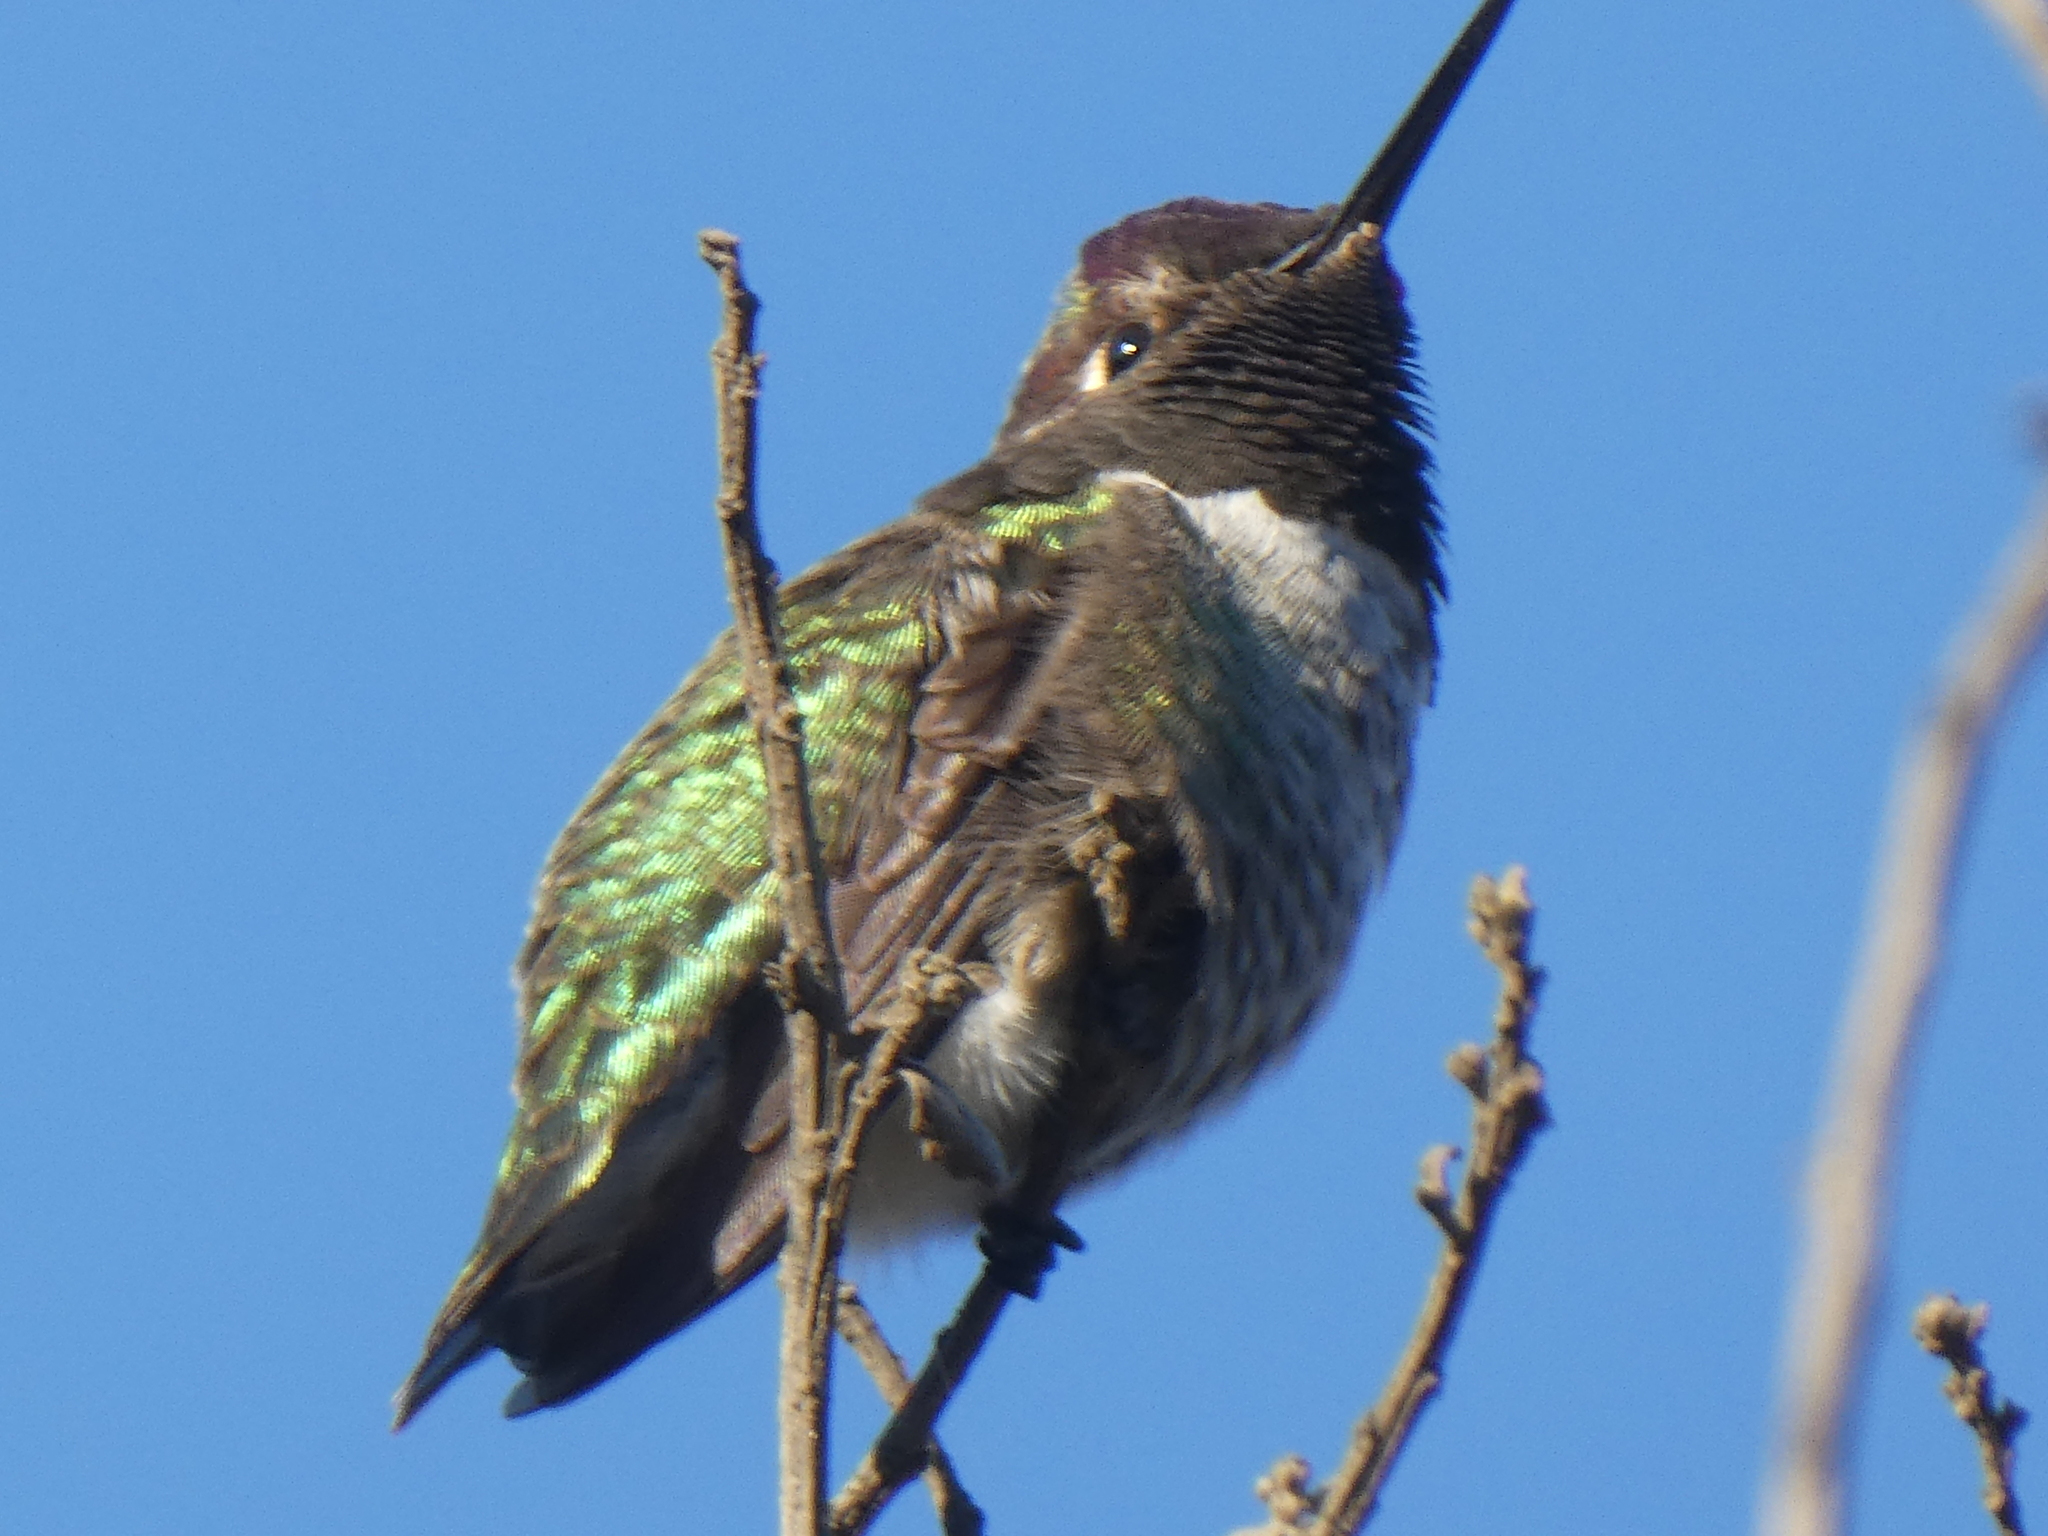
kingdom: Animalia
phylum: Chordata
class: Aves
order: Apodiformes
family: Trochilidae
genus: Calypte
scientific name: Calypte anna
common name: Anna's hummingbird
